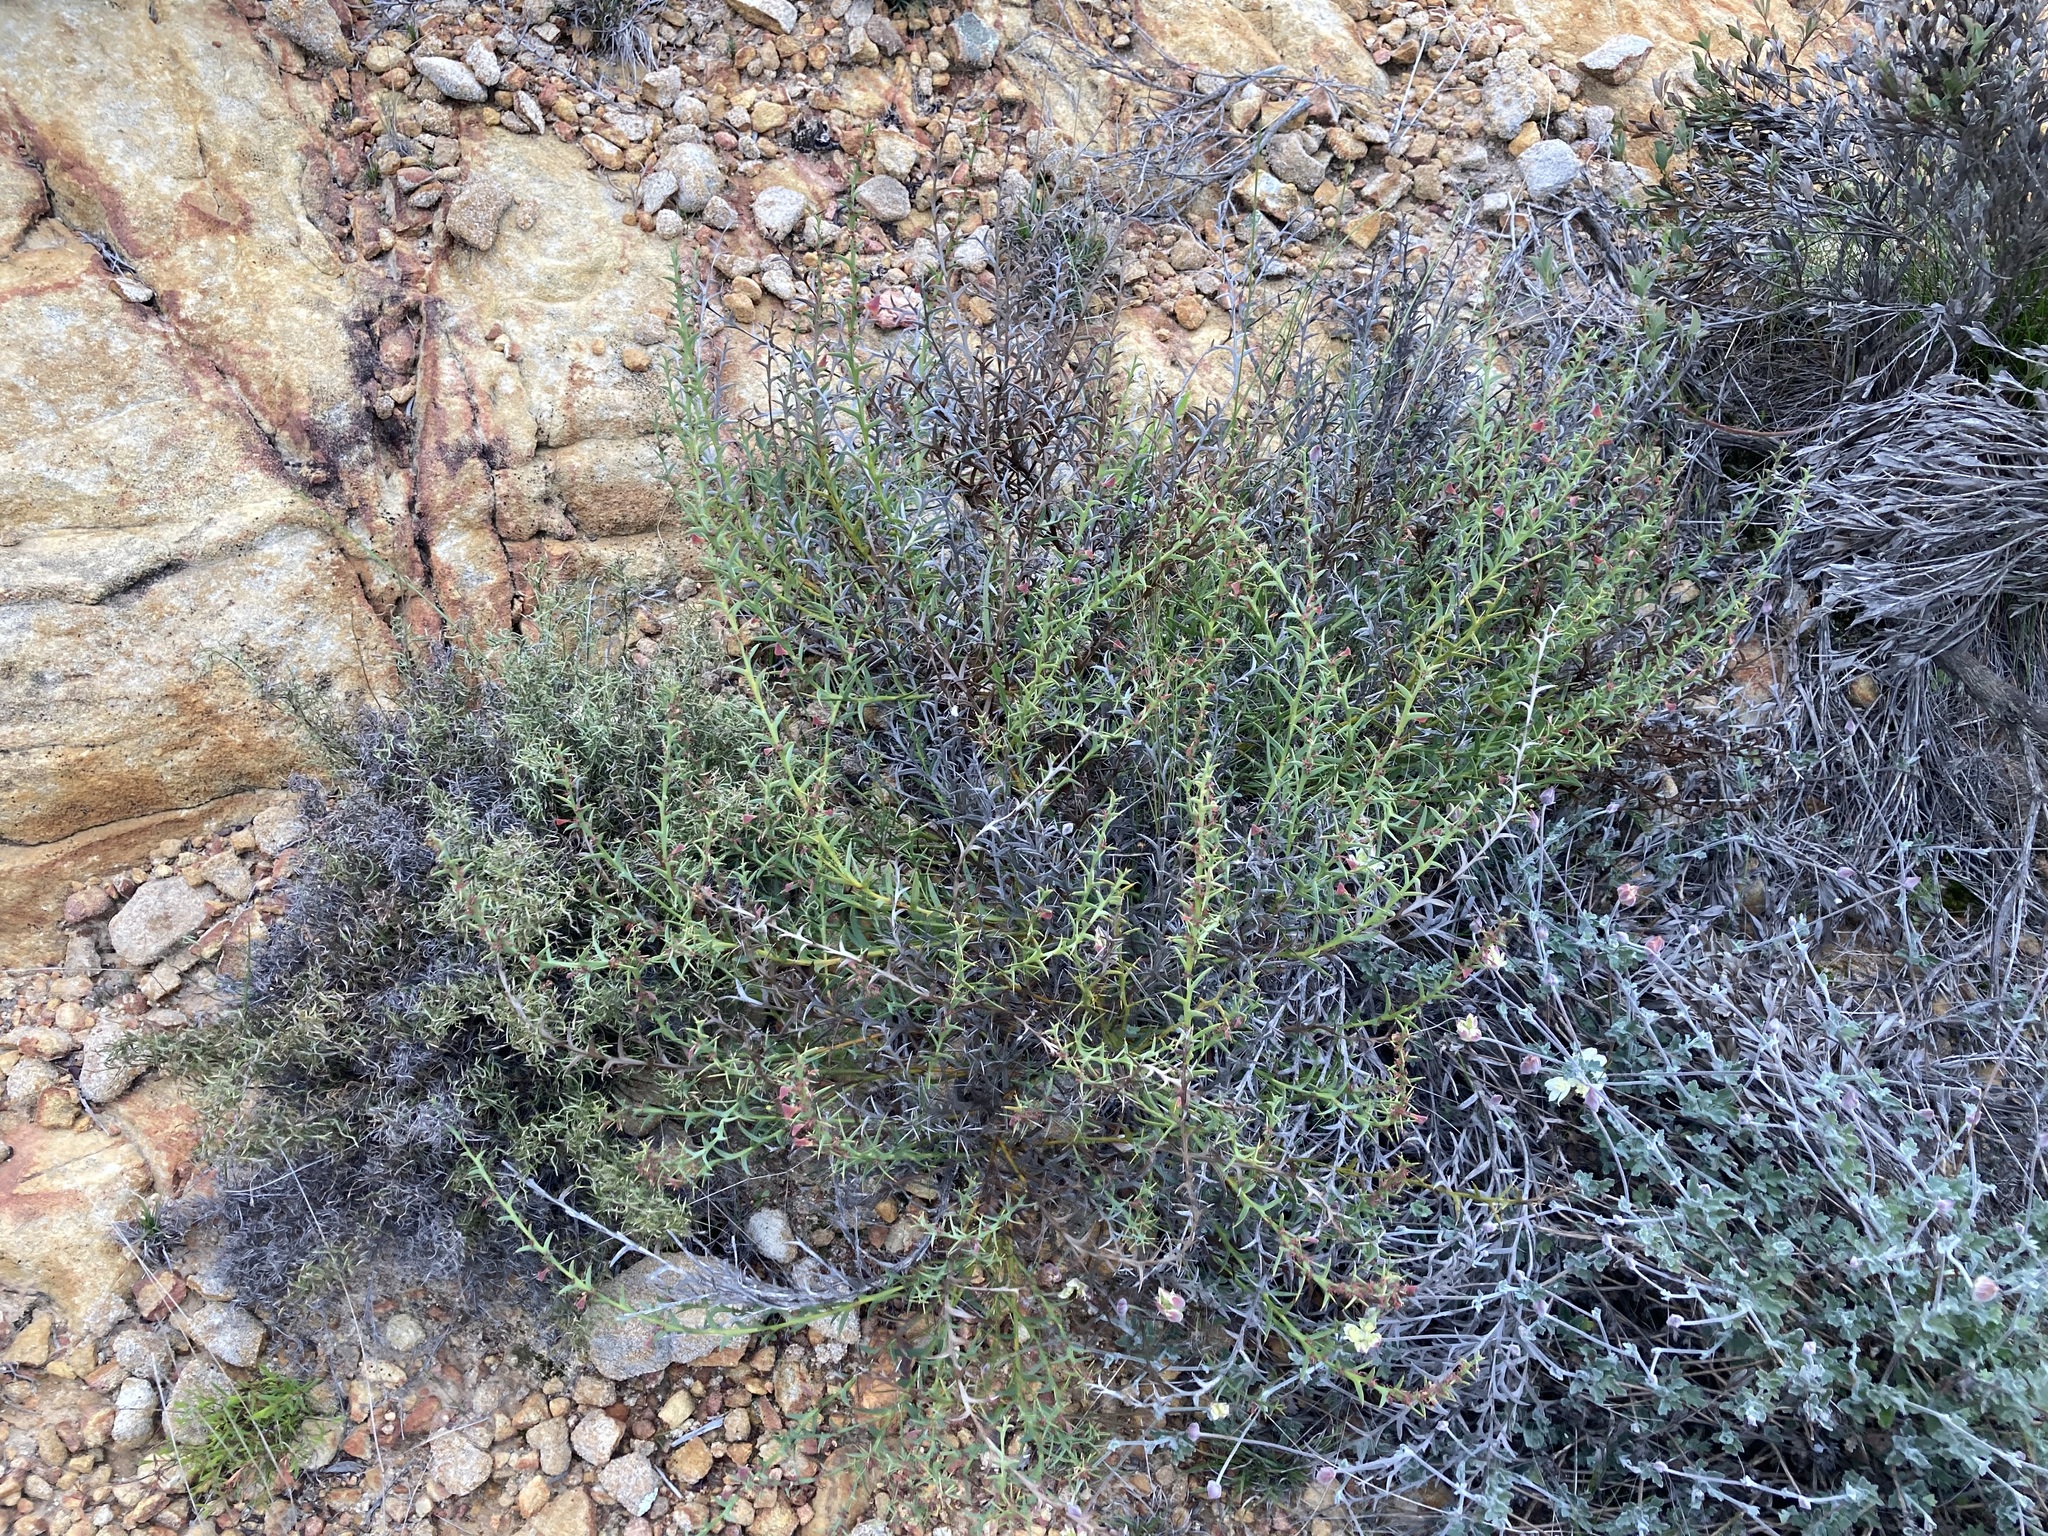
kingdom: Plantae
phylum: Tracheophyta
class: Magnoliopsida
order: Fabales
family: Fabaceae
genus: Daviesia
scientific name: Daviesia decurrens
